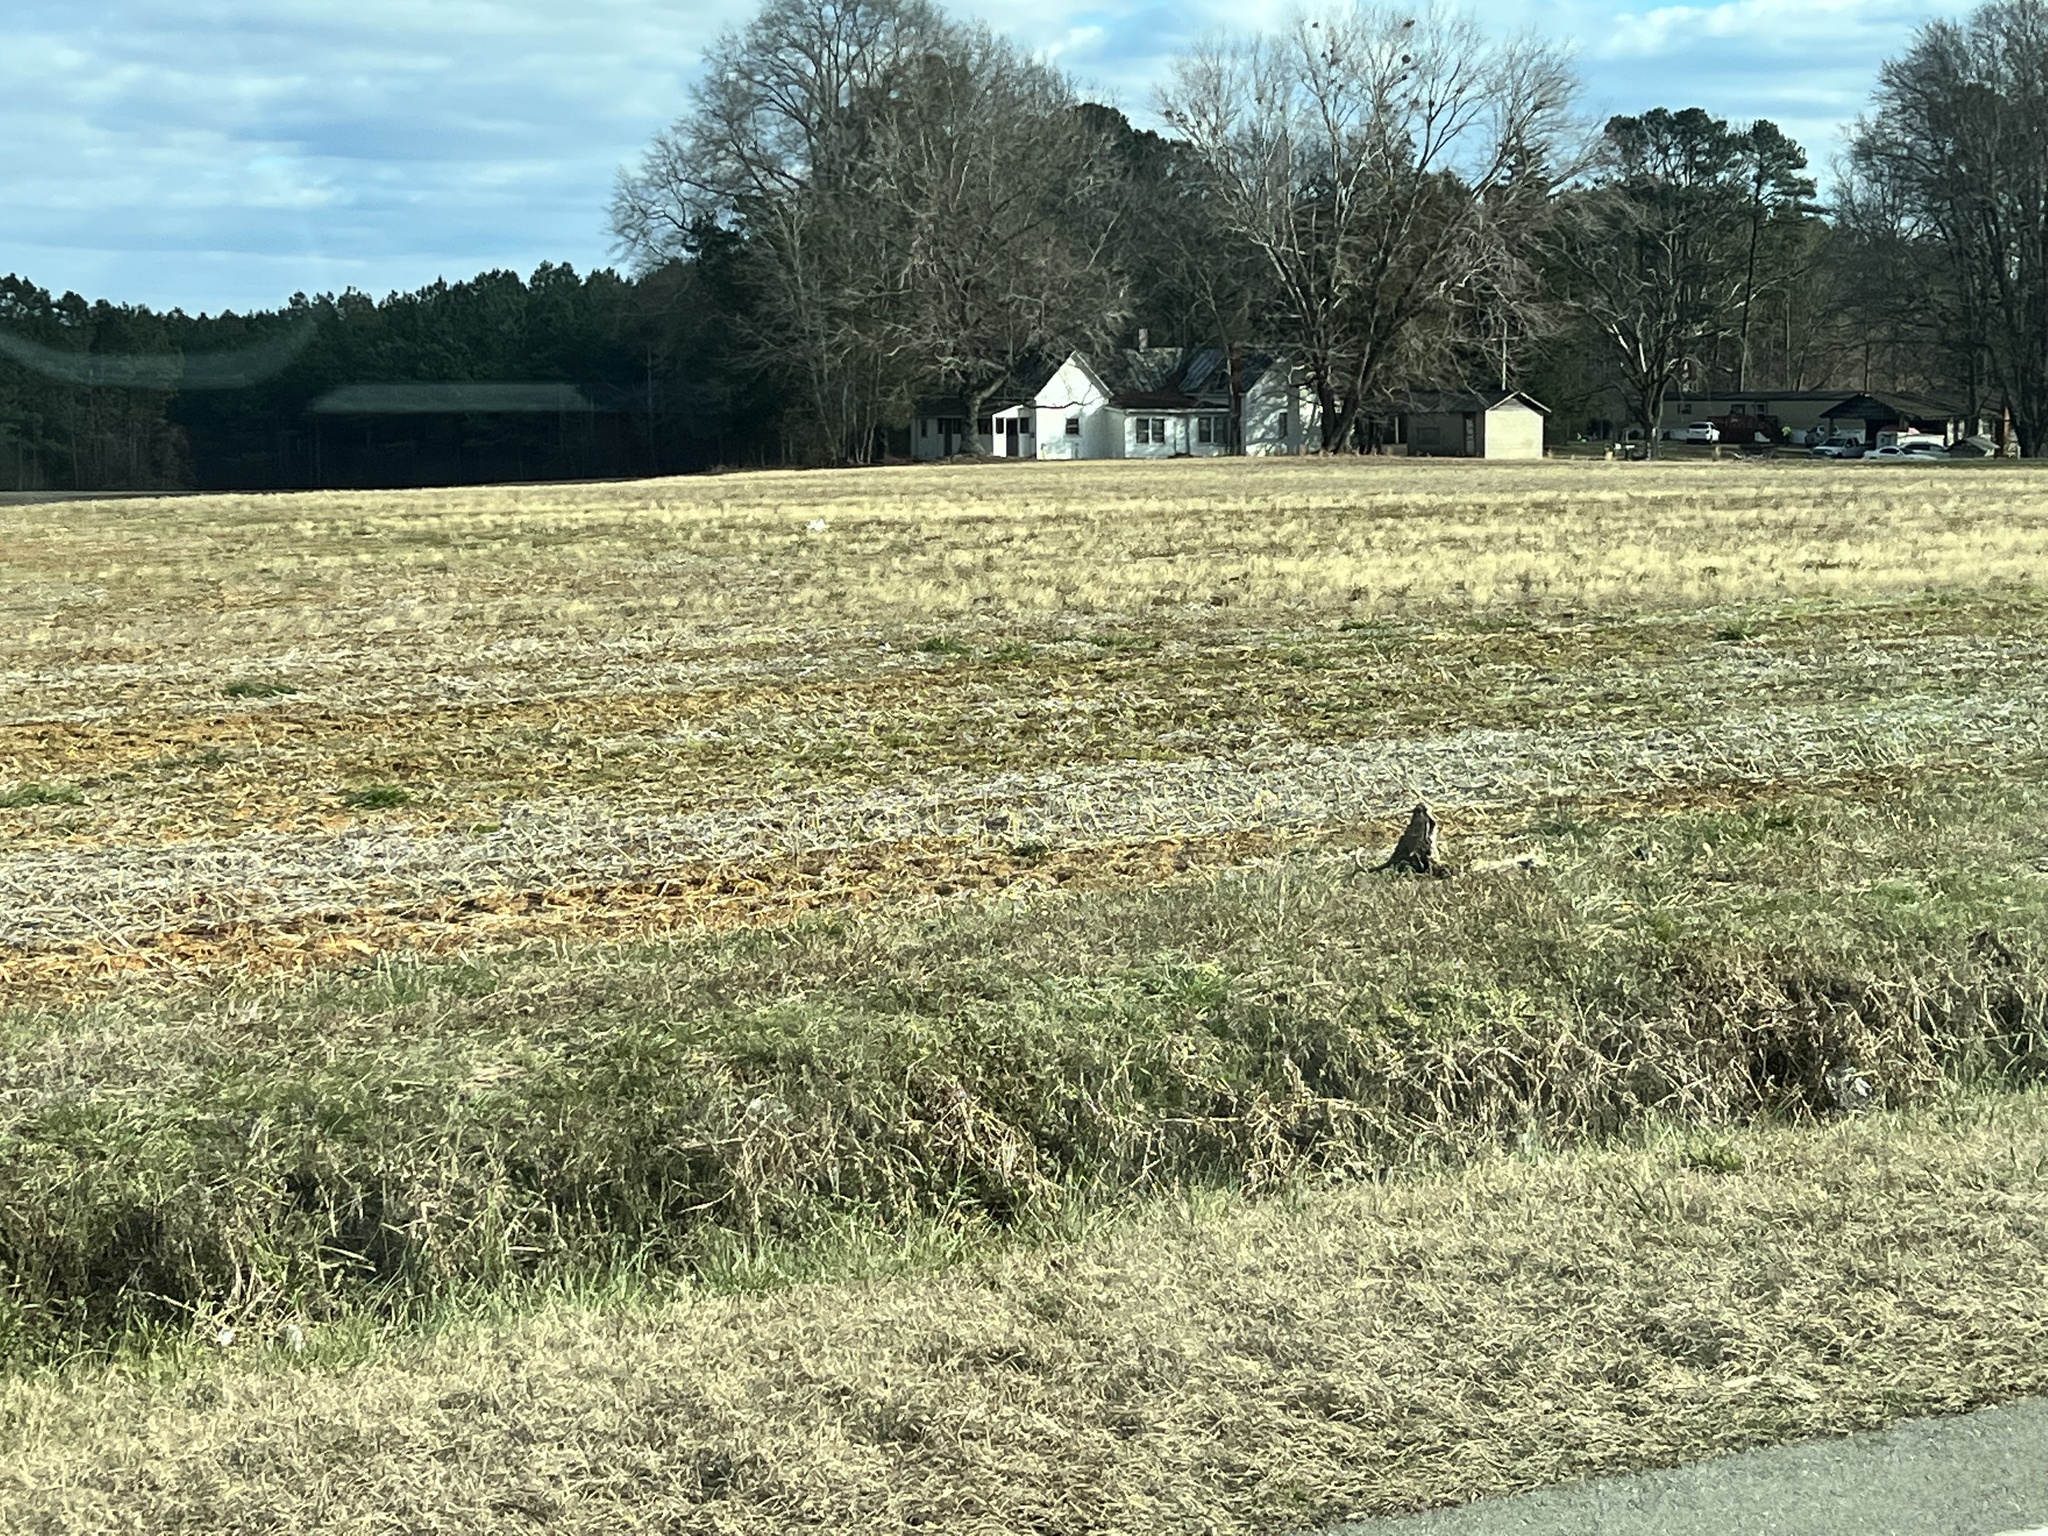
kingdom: Animalia
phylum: Chordata
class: Mammalia
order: Artiodactyla
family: Cervidae
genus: Odocoileus
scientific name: Odocoileus virginianus
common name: White-tailed deer
